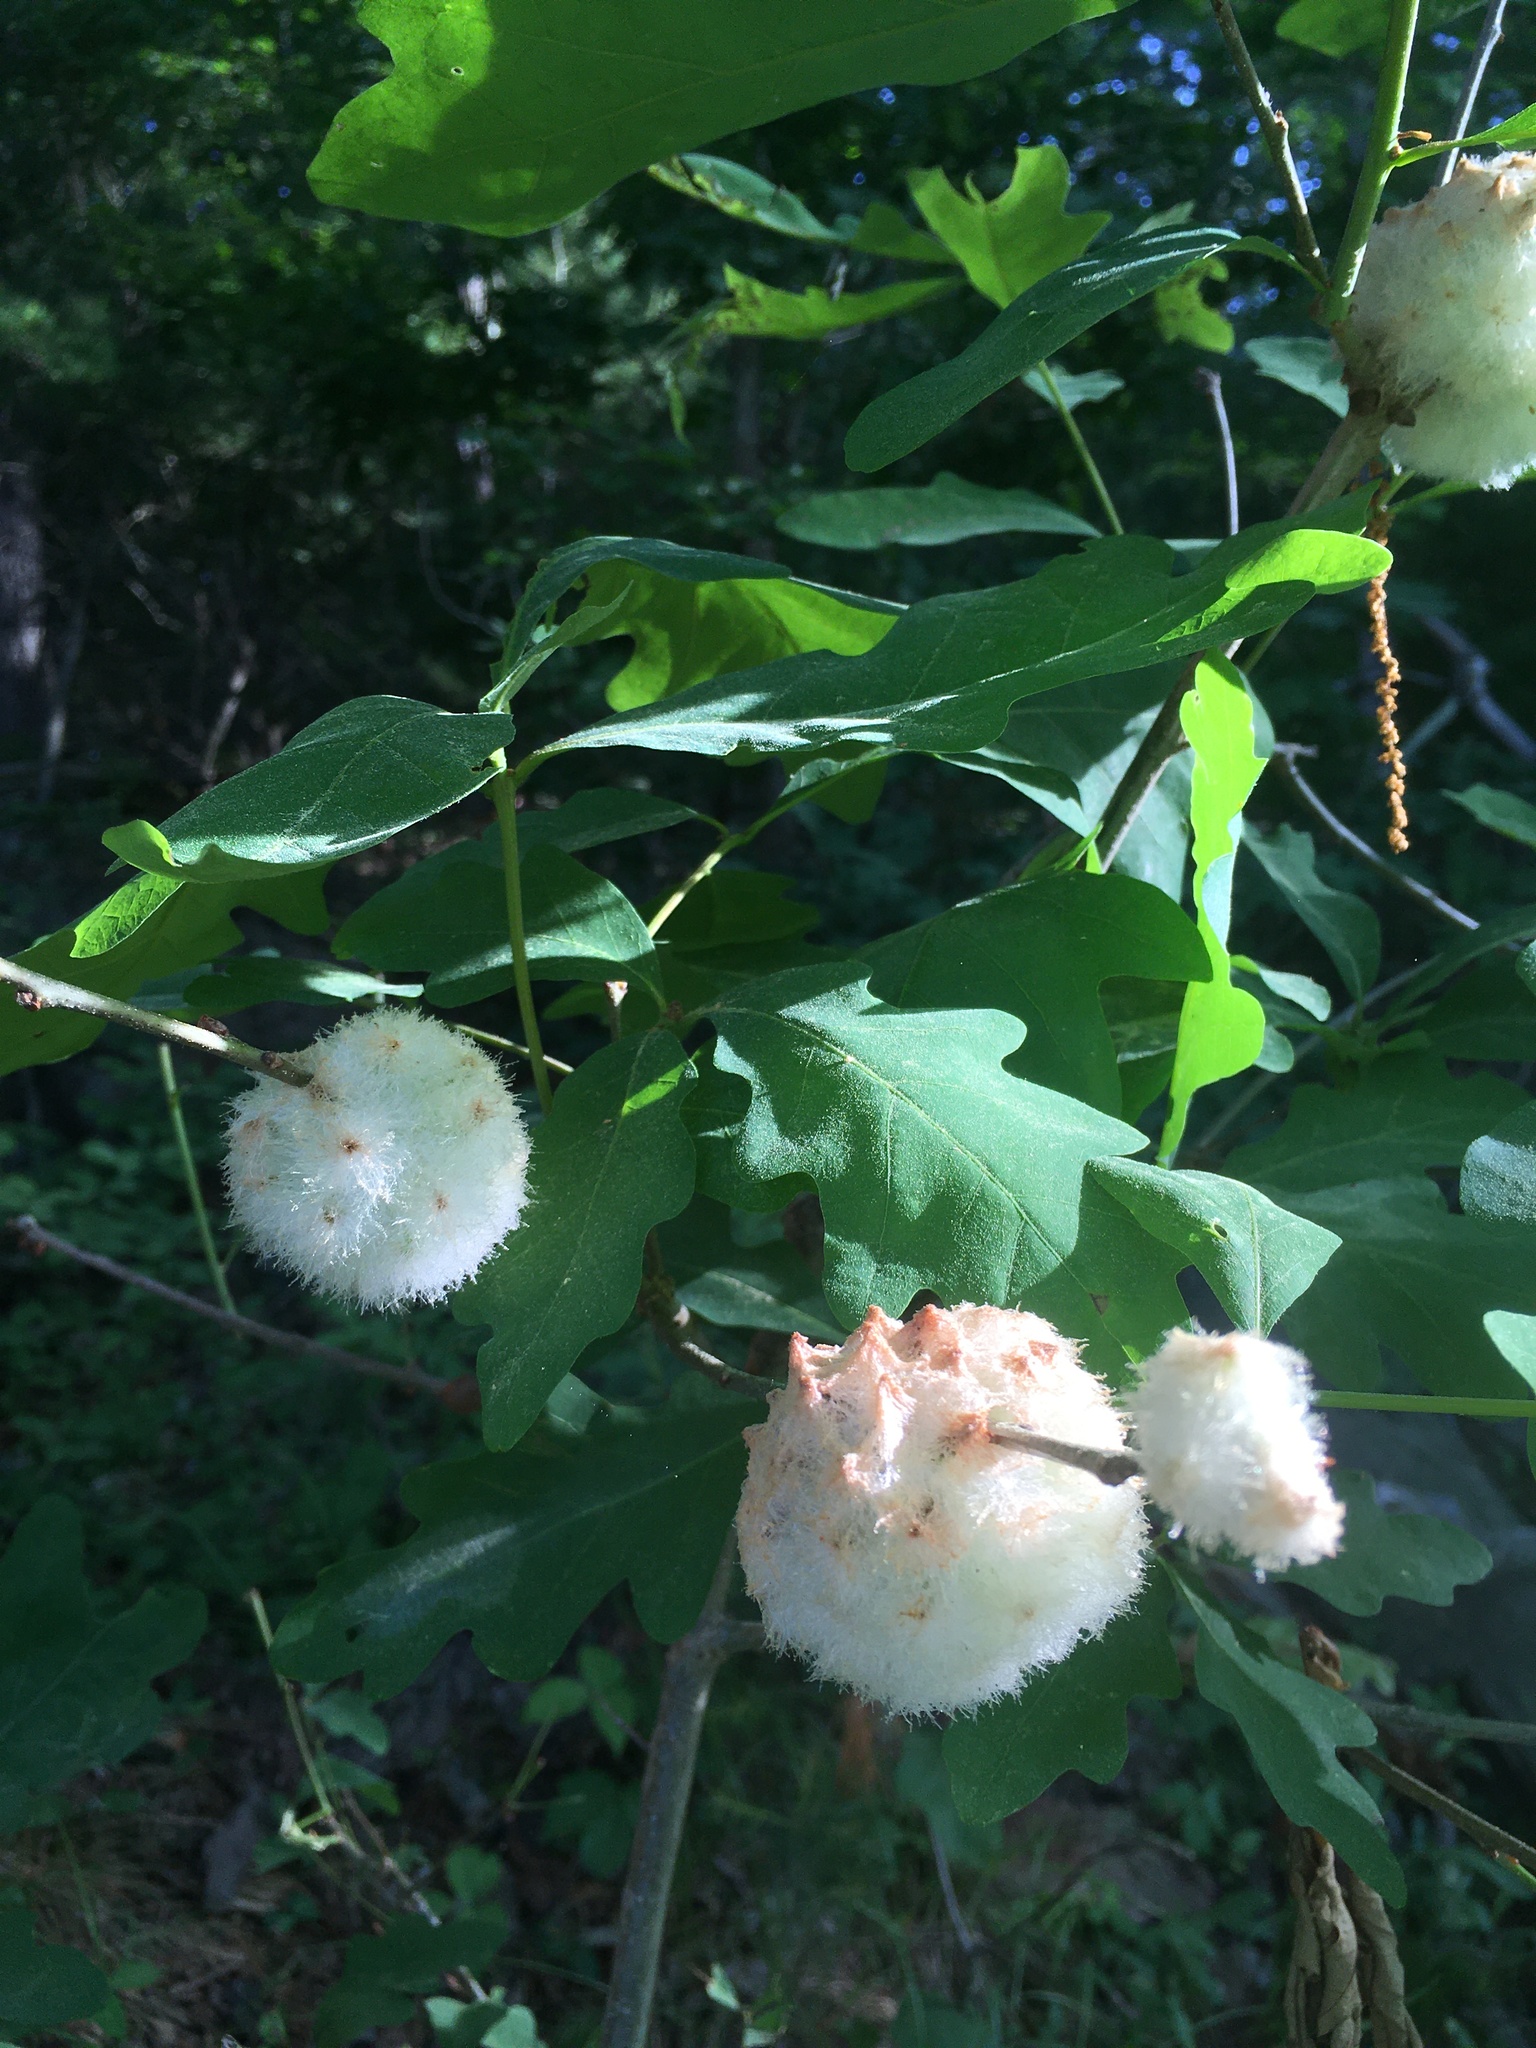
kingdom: Animalia
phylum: Arthropoda
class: Insecta
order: Hymenoptera
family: Cynipidae
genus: Callirhytis
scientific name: Callirhytis
